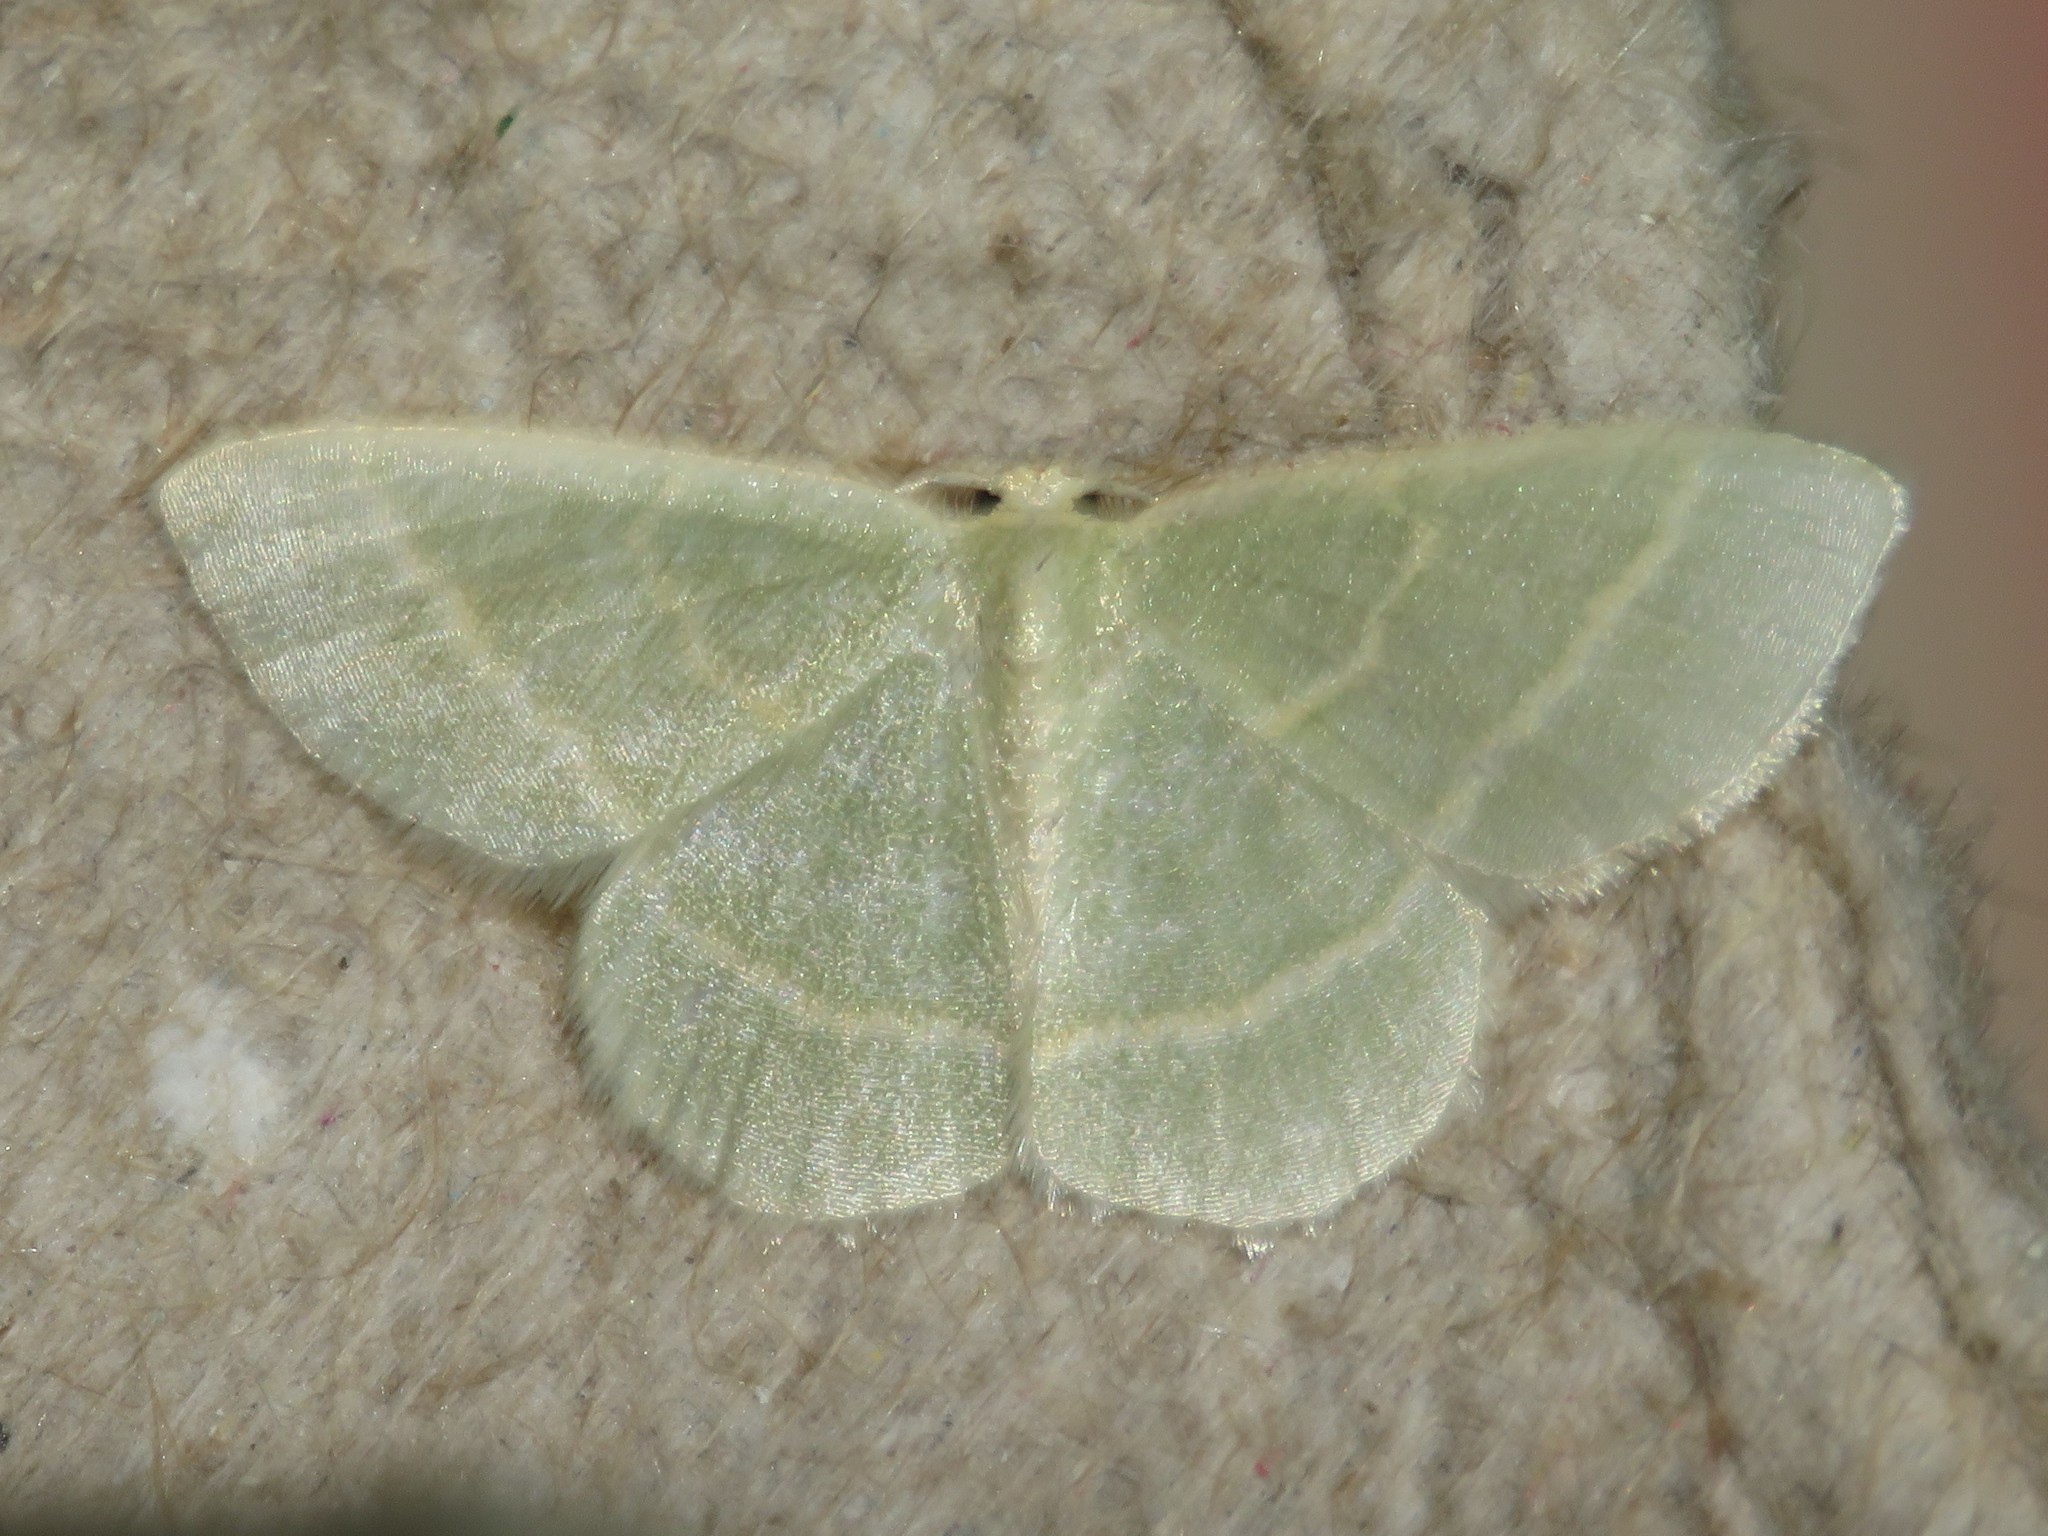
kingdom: Animalia
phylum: Arthropoda
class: Insecta
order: Lepidoptera
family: Geometridae
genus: Chlorochlamys
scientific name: Chlorochlamys chloroleucaria
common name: Blackberry looper
